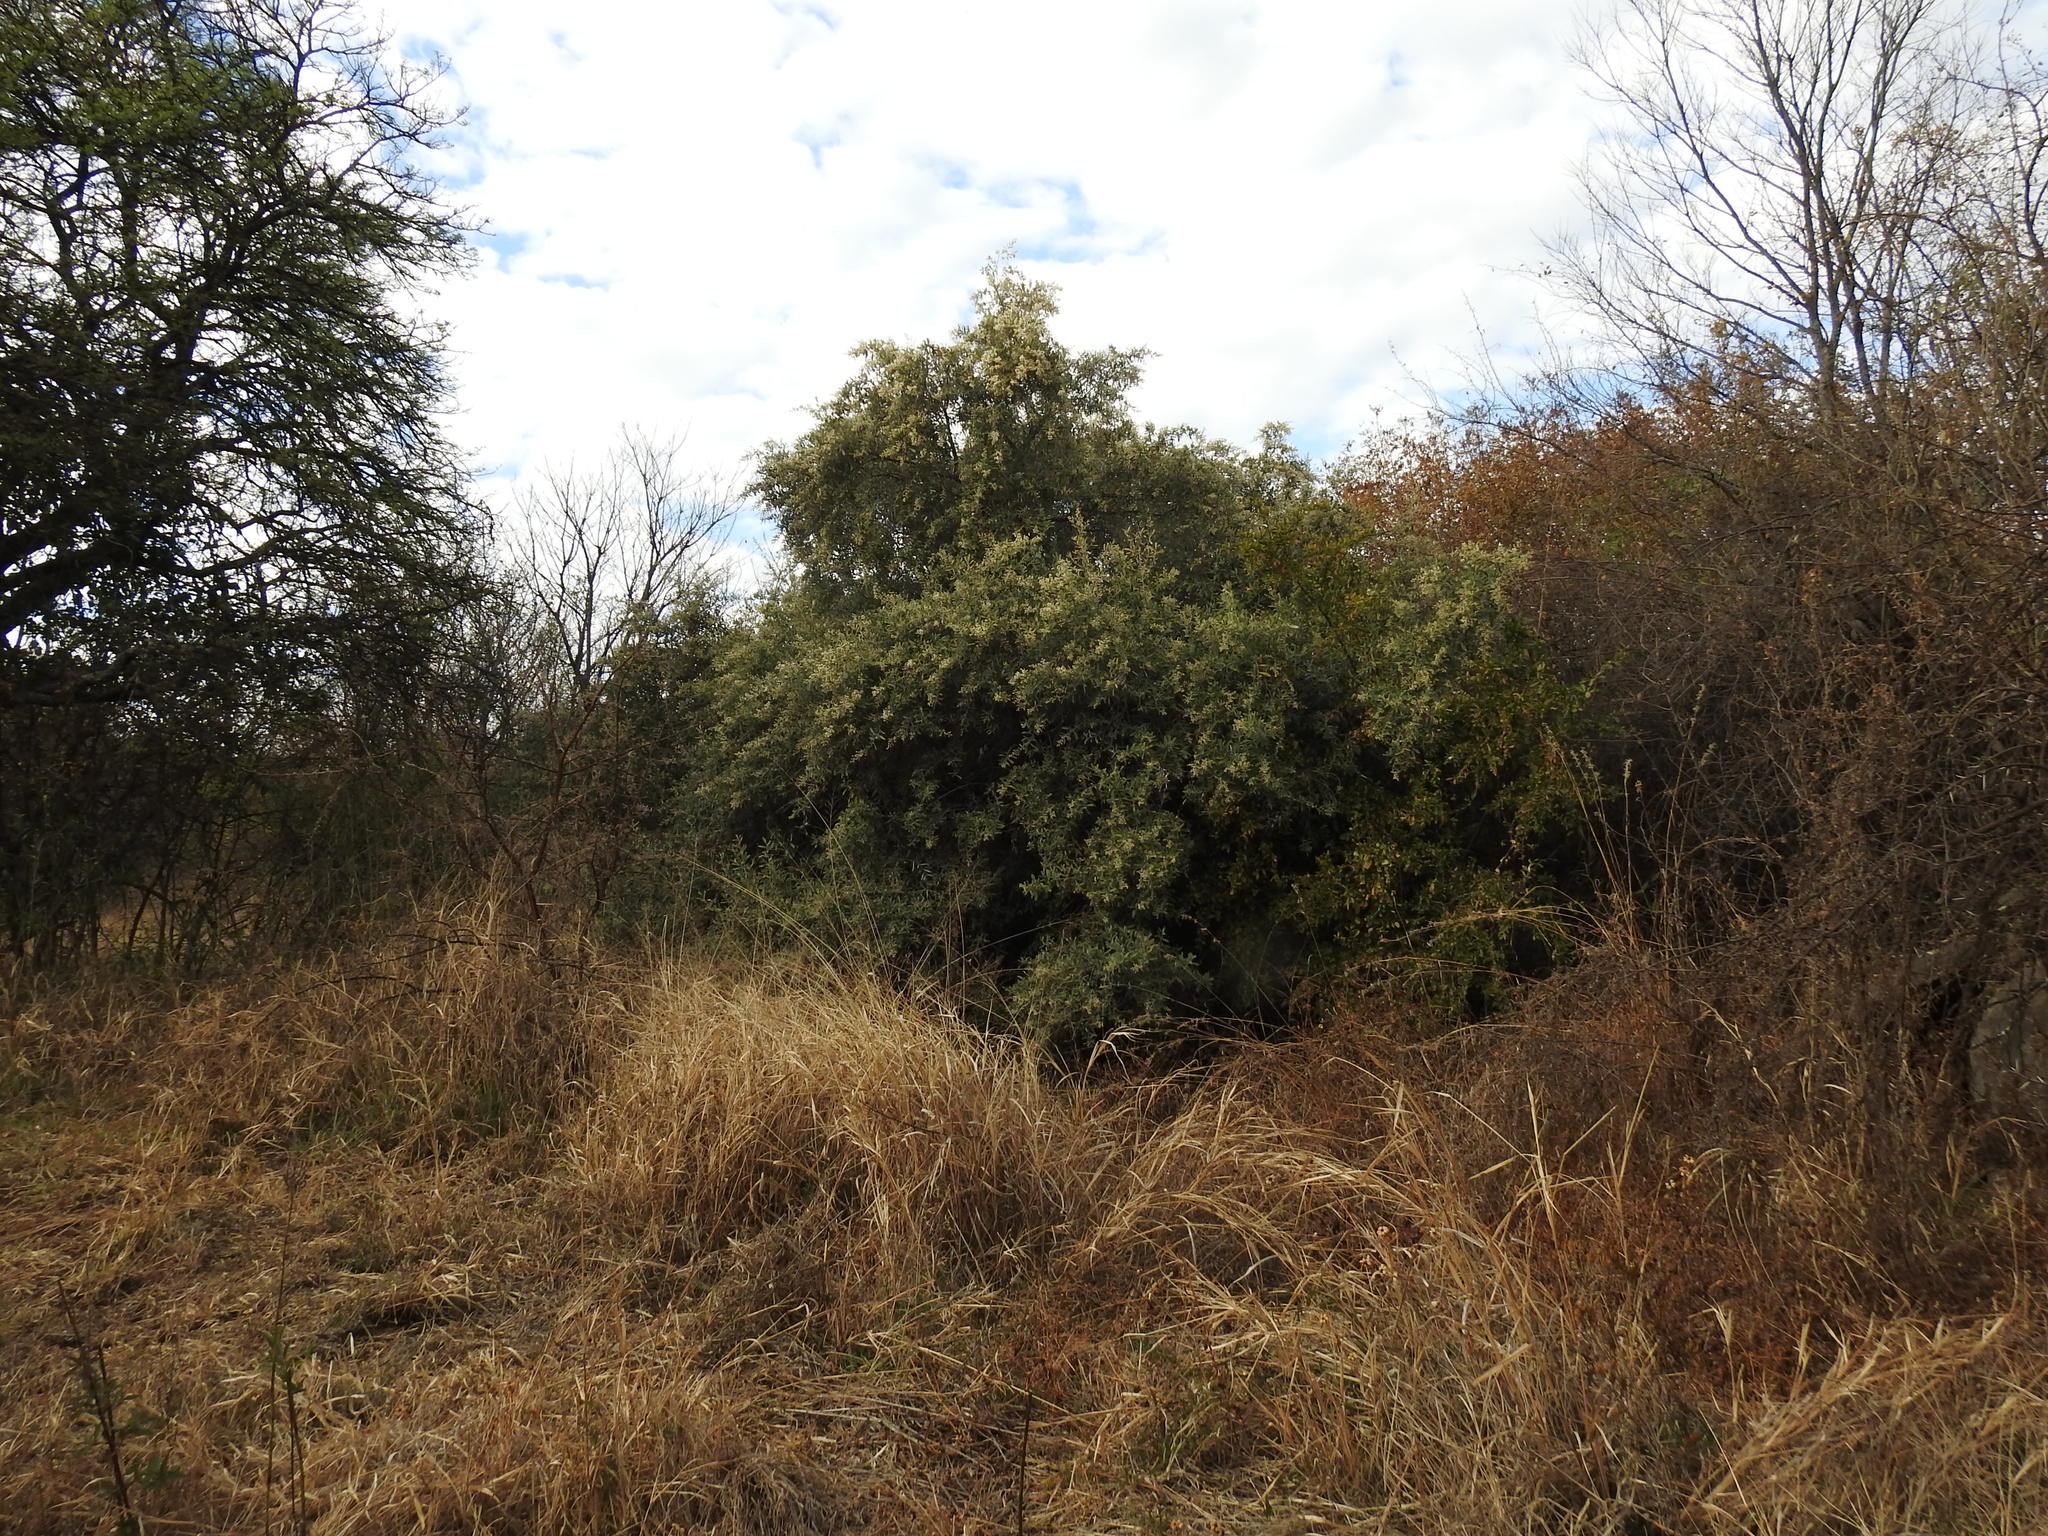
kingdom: Plantae
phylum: Tracheophyta
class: Magnoliopsida
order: Asterales
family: Asteraceae
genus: Tarchonanthus
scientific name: Tarchonanthus camphoratus
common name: Camphorwood
